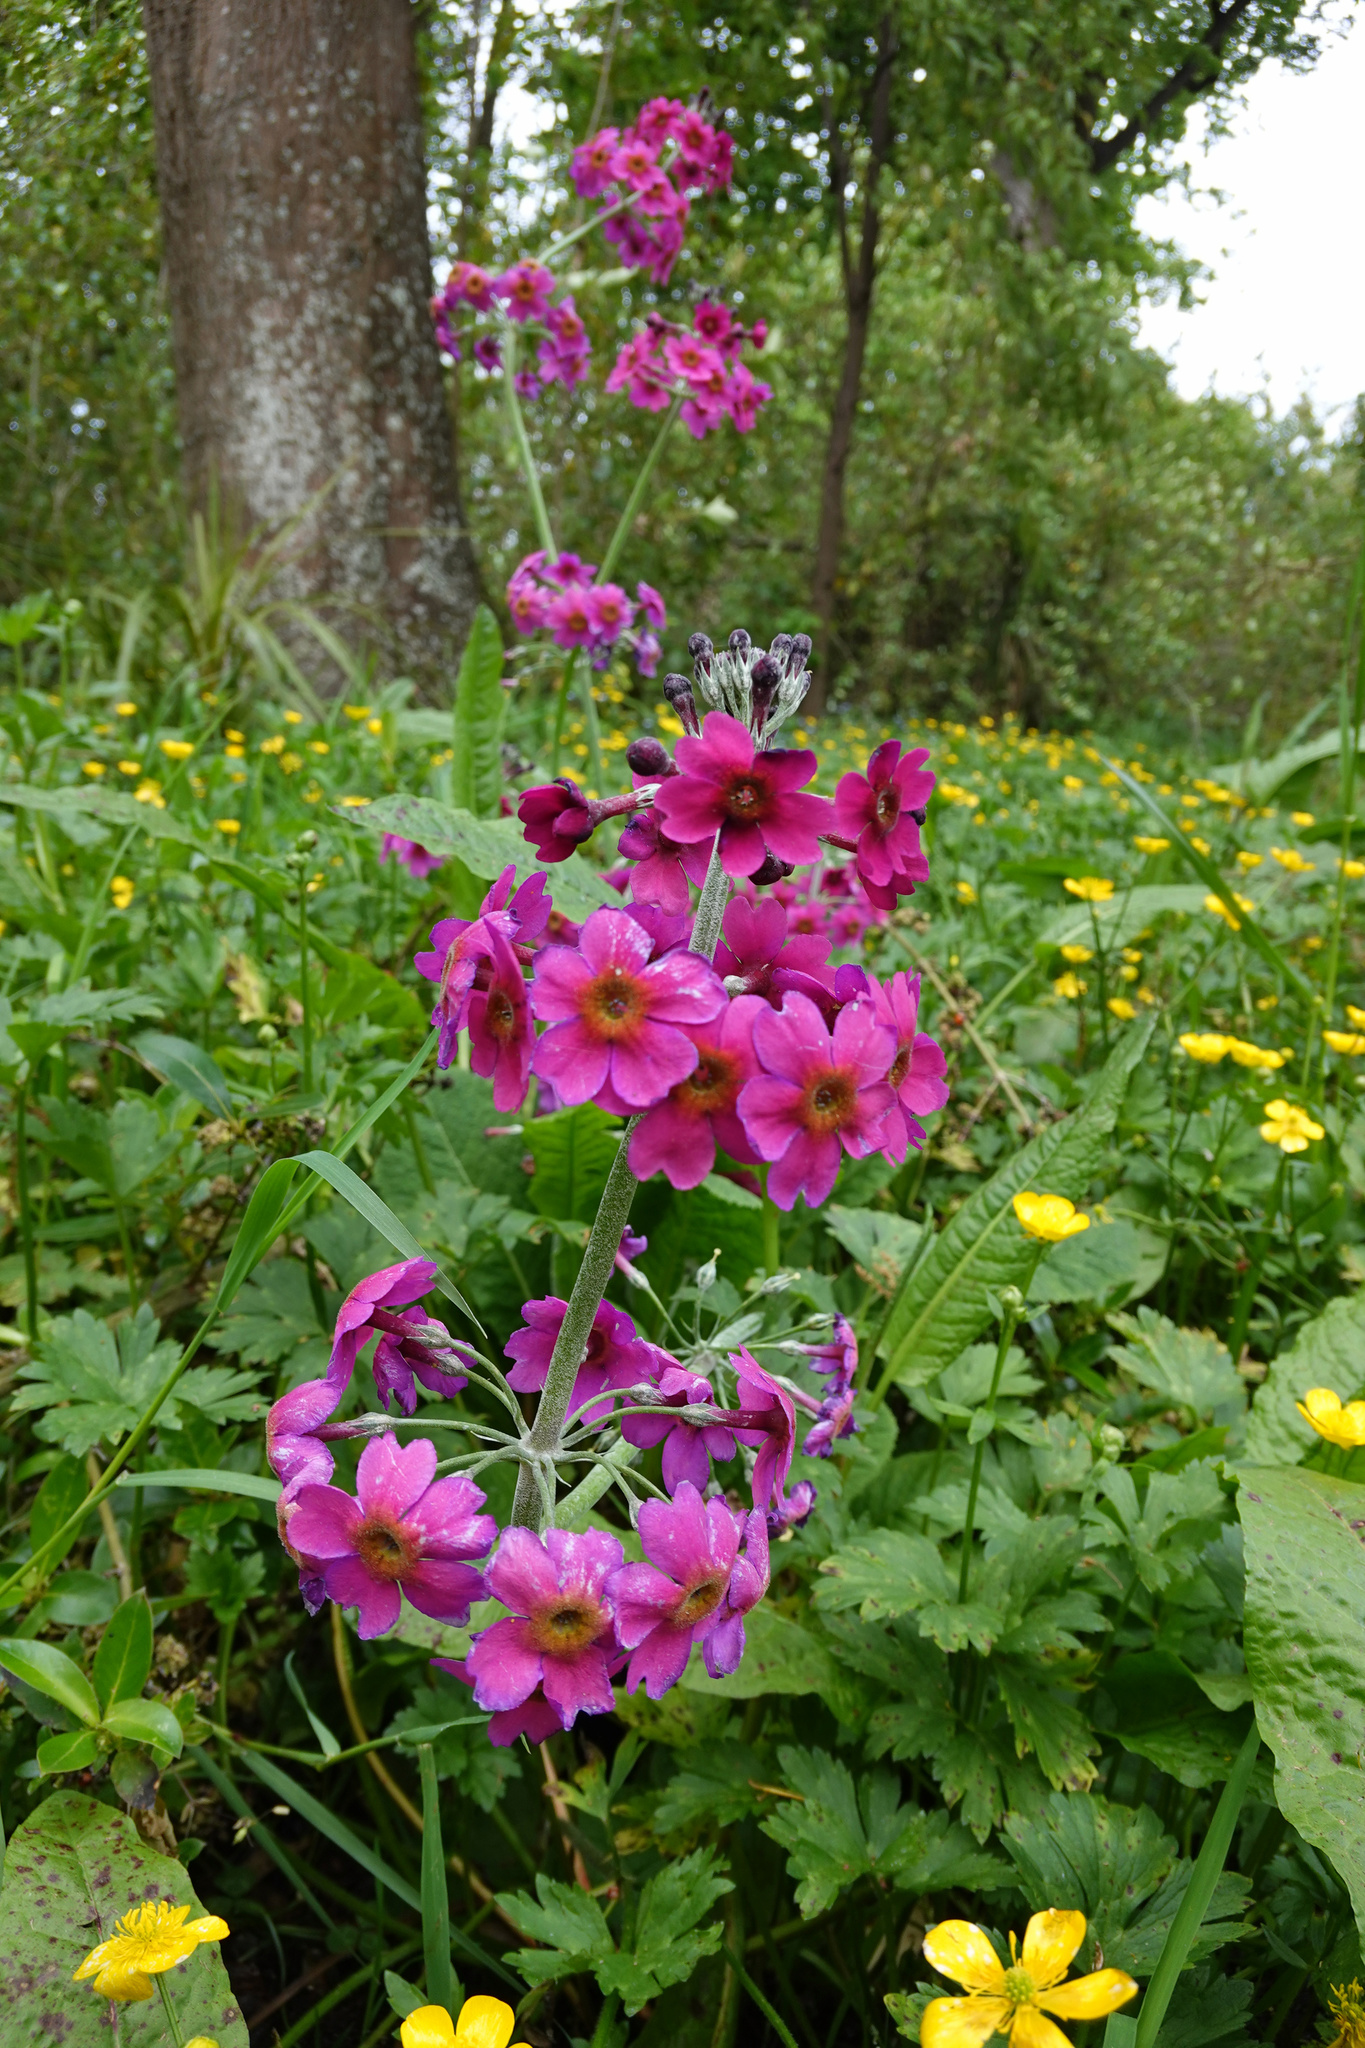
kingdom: Plantae
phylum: Tracheophyta
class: Magnoliopsida
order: Ericales
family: Primulaceae
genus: Primula
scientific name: Primula pulverulenta
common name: Mealy cowslip
